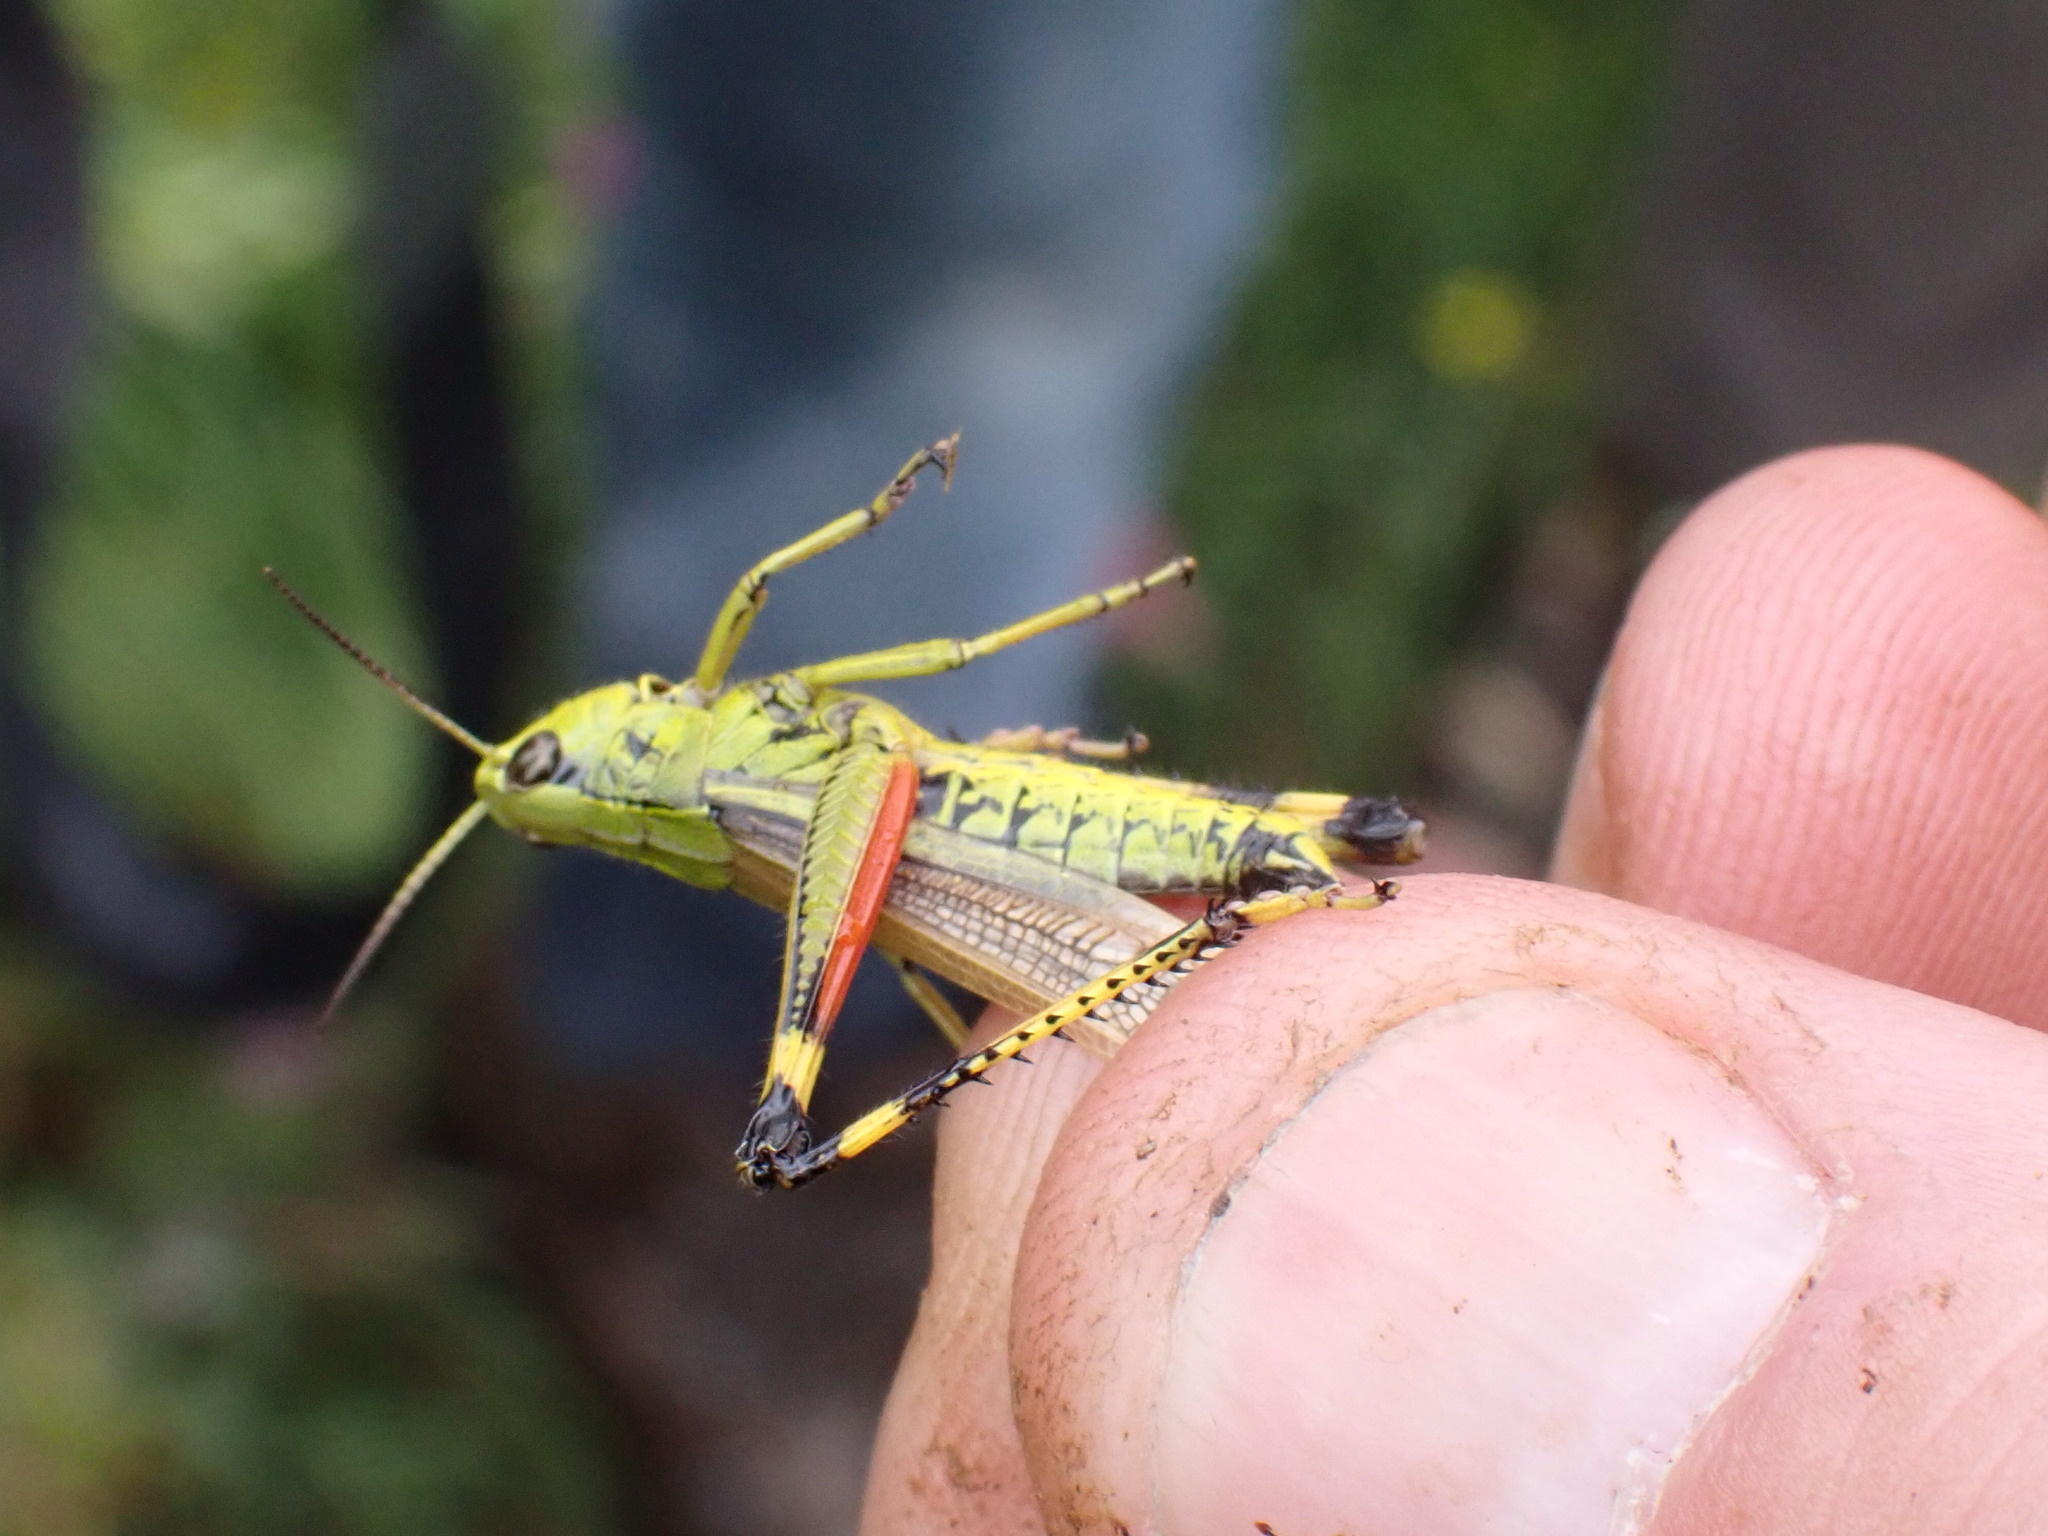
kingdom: Animalia
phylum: Arthropoda
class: Insecta
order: Orthoptera
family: Acrididae
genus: Stethophyma
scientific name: Stethophyma grossum
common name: Large marsh grasshopper
